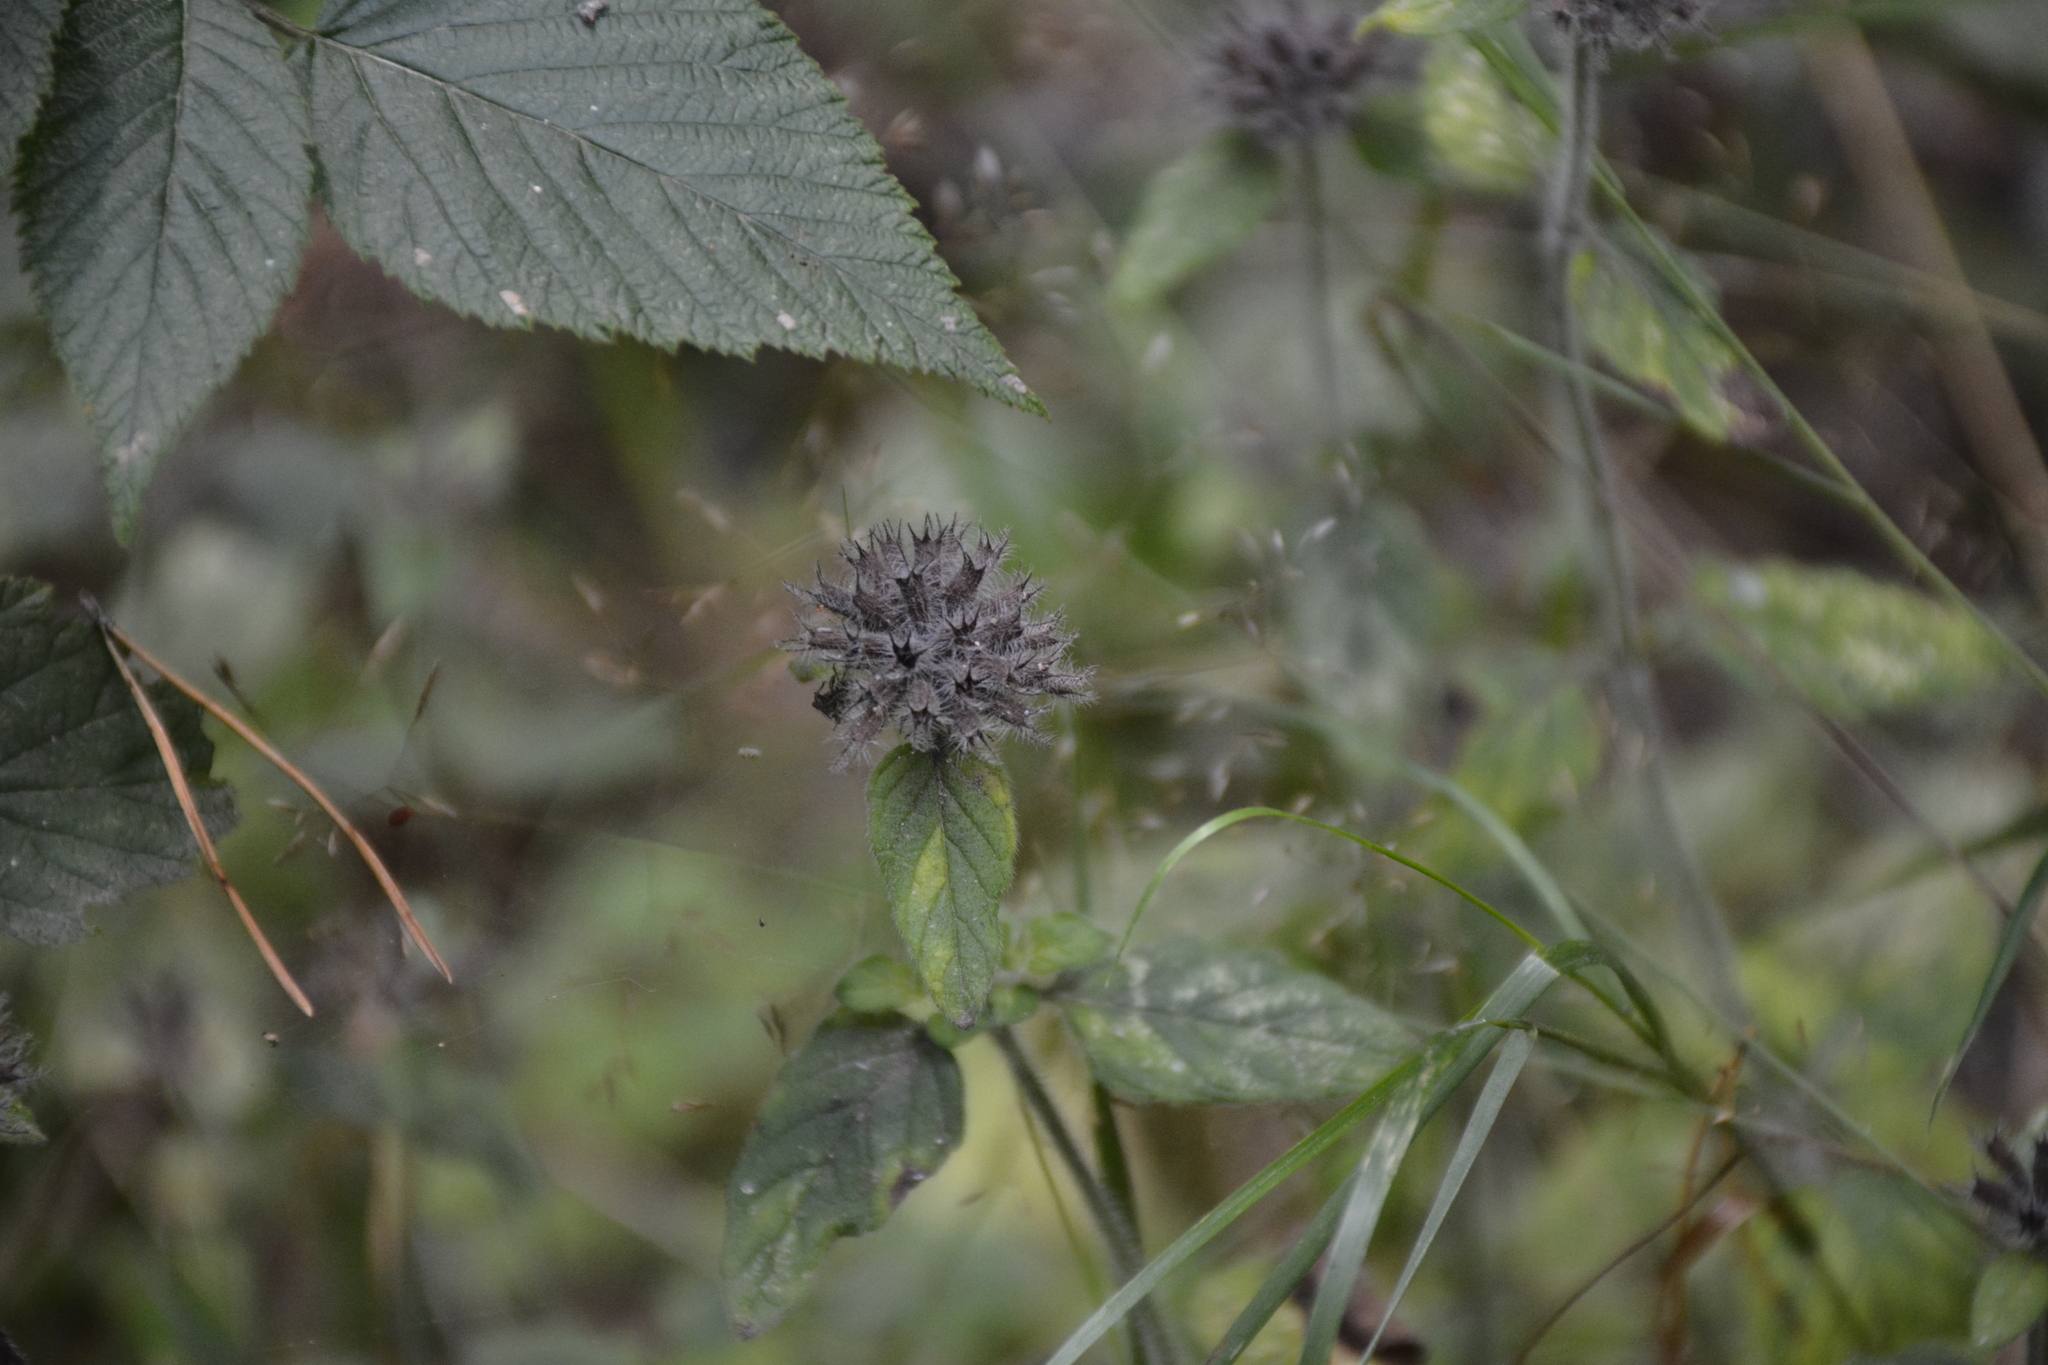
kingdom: Plantae
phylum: Tracheophyta
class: Magnoliopsida
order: Lamiales
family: Lamiaceae
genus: Clinopodium
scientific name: Clinopodium vulgare
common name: Wild basil
